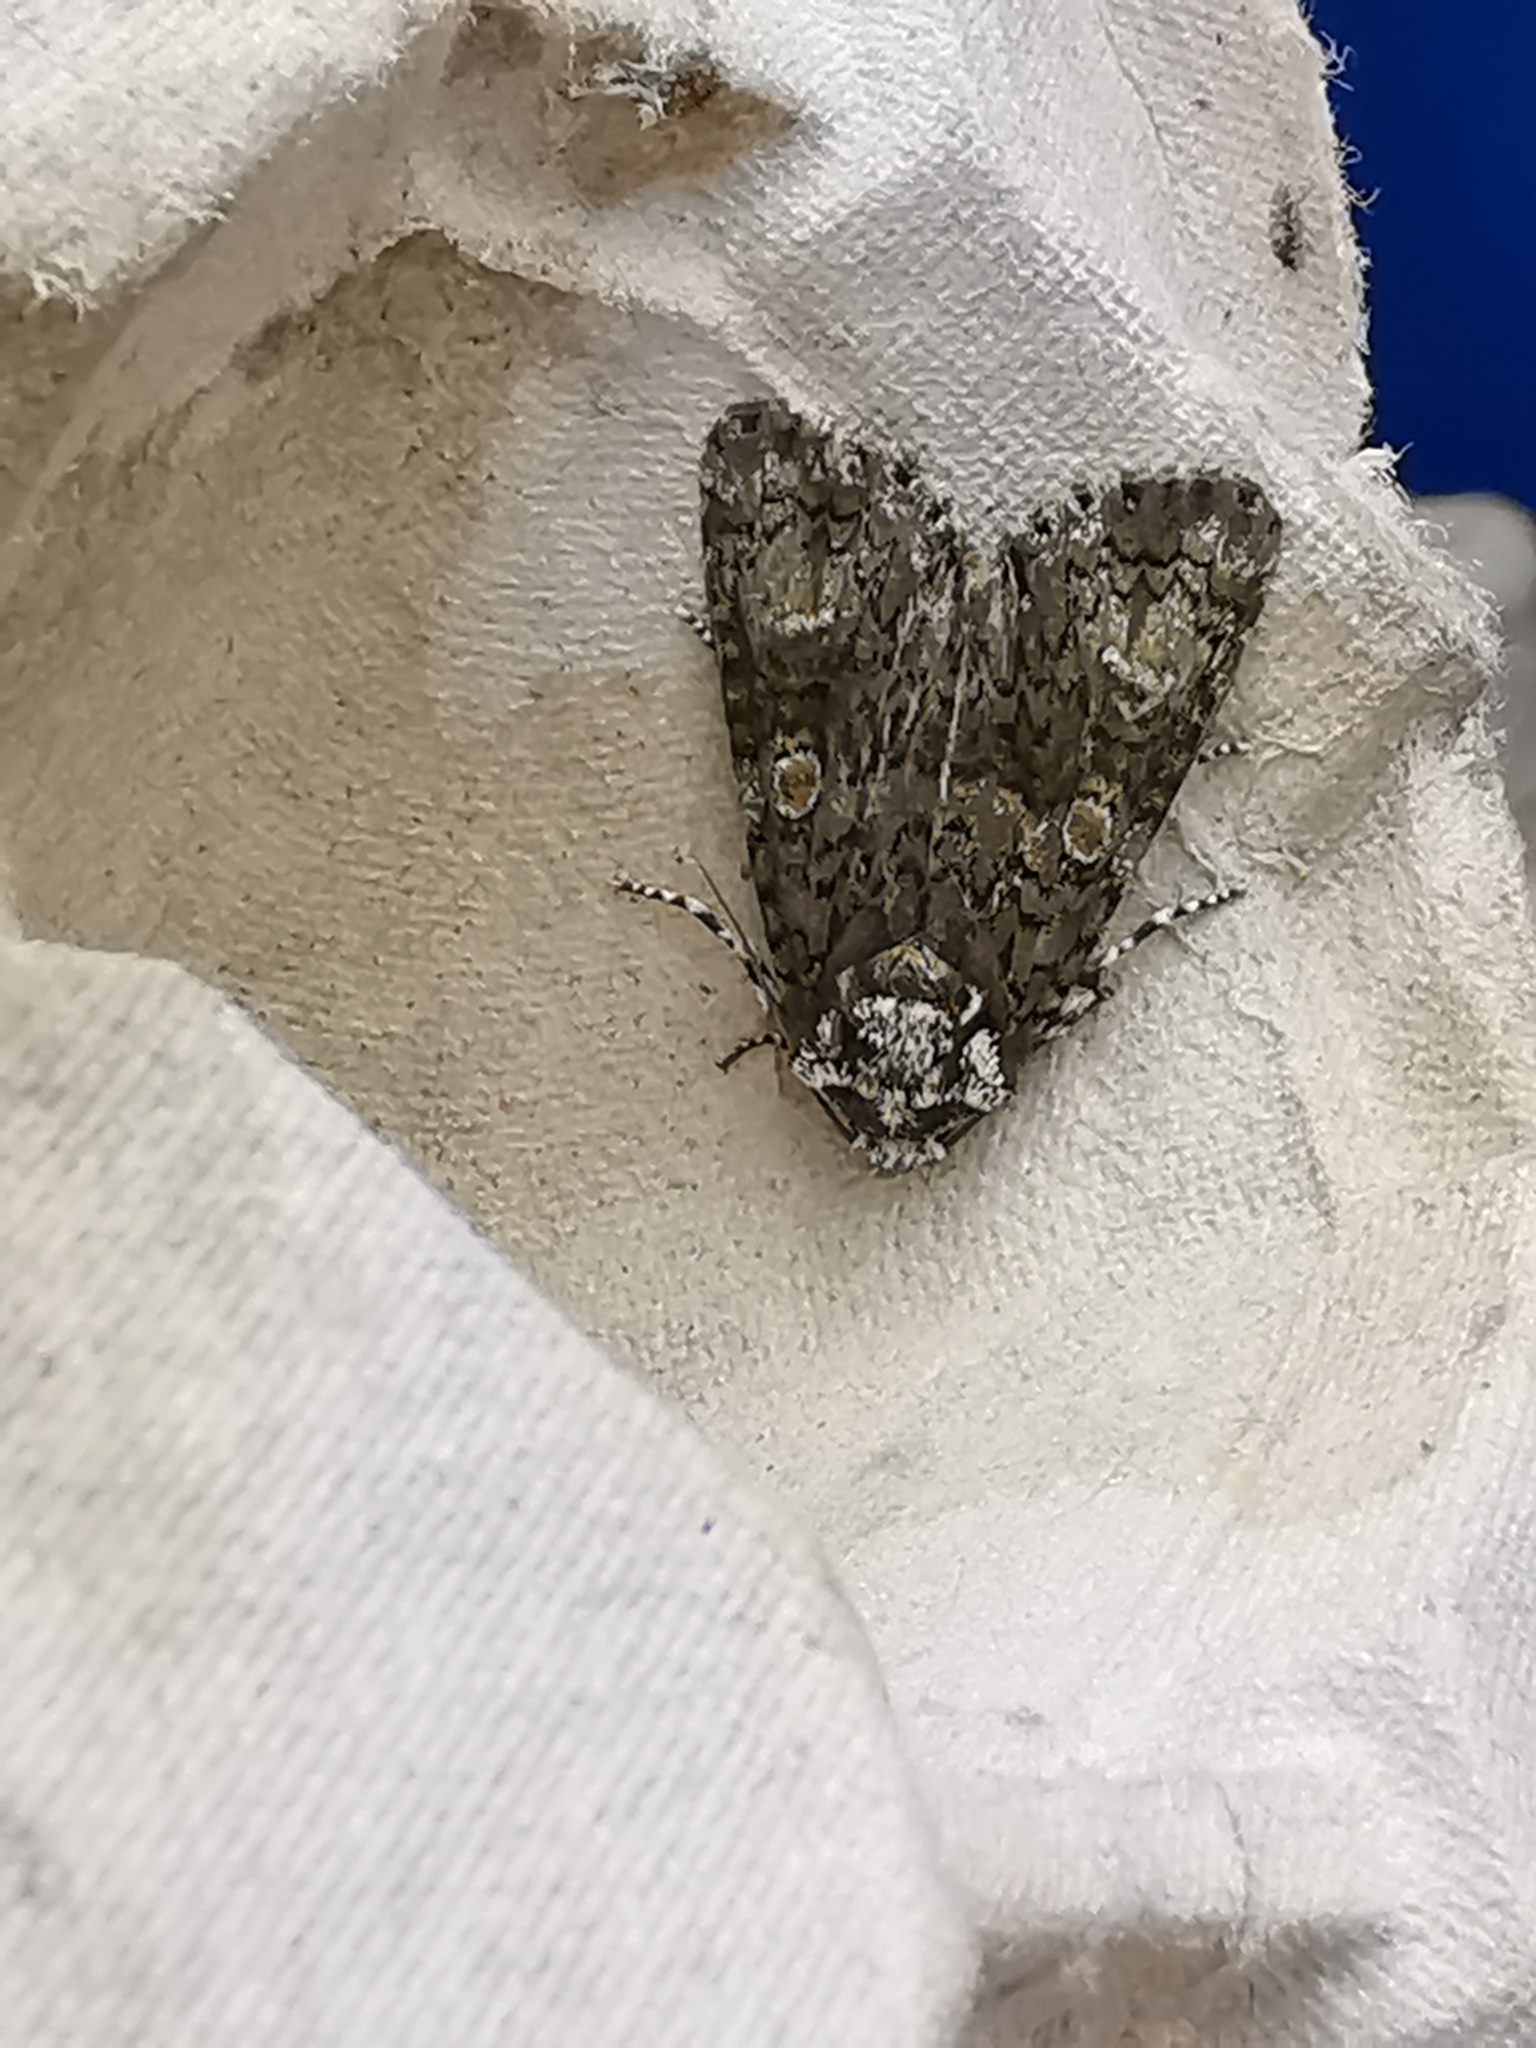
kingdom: Animalia
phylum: Arthropoda
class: Insecta
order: Lepidoptera
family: Noctuidae
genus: Craniophora
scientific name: Craniophora ligustri
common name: Coronet
